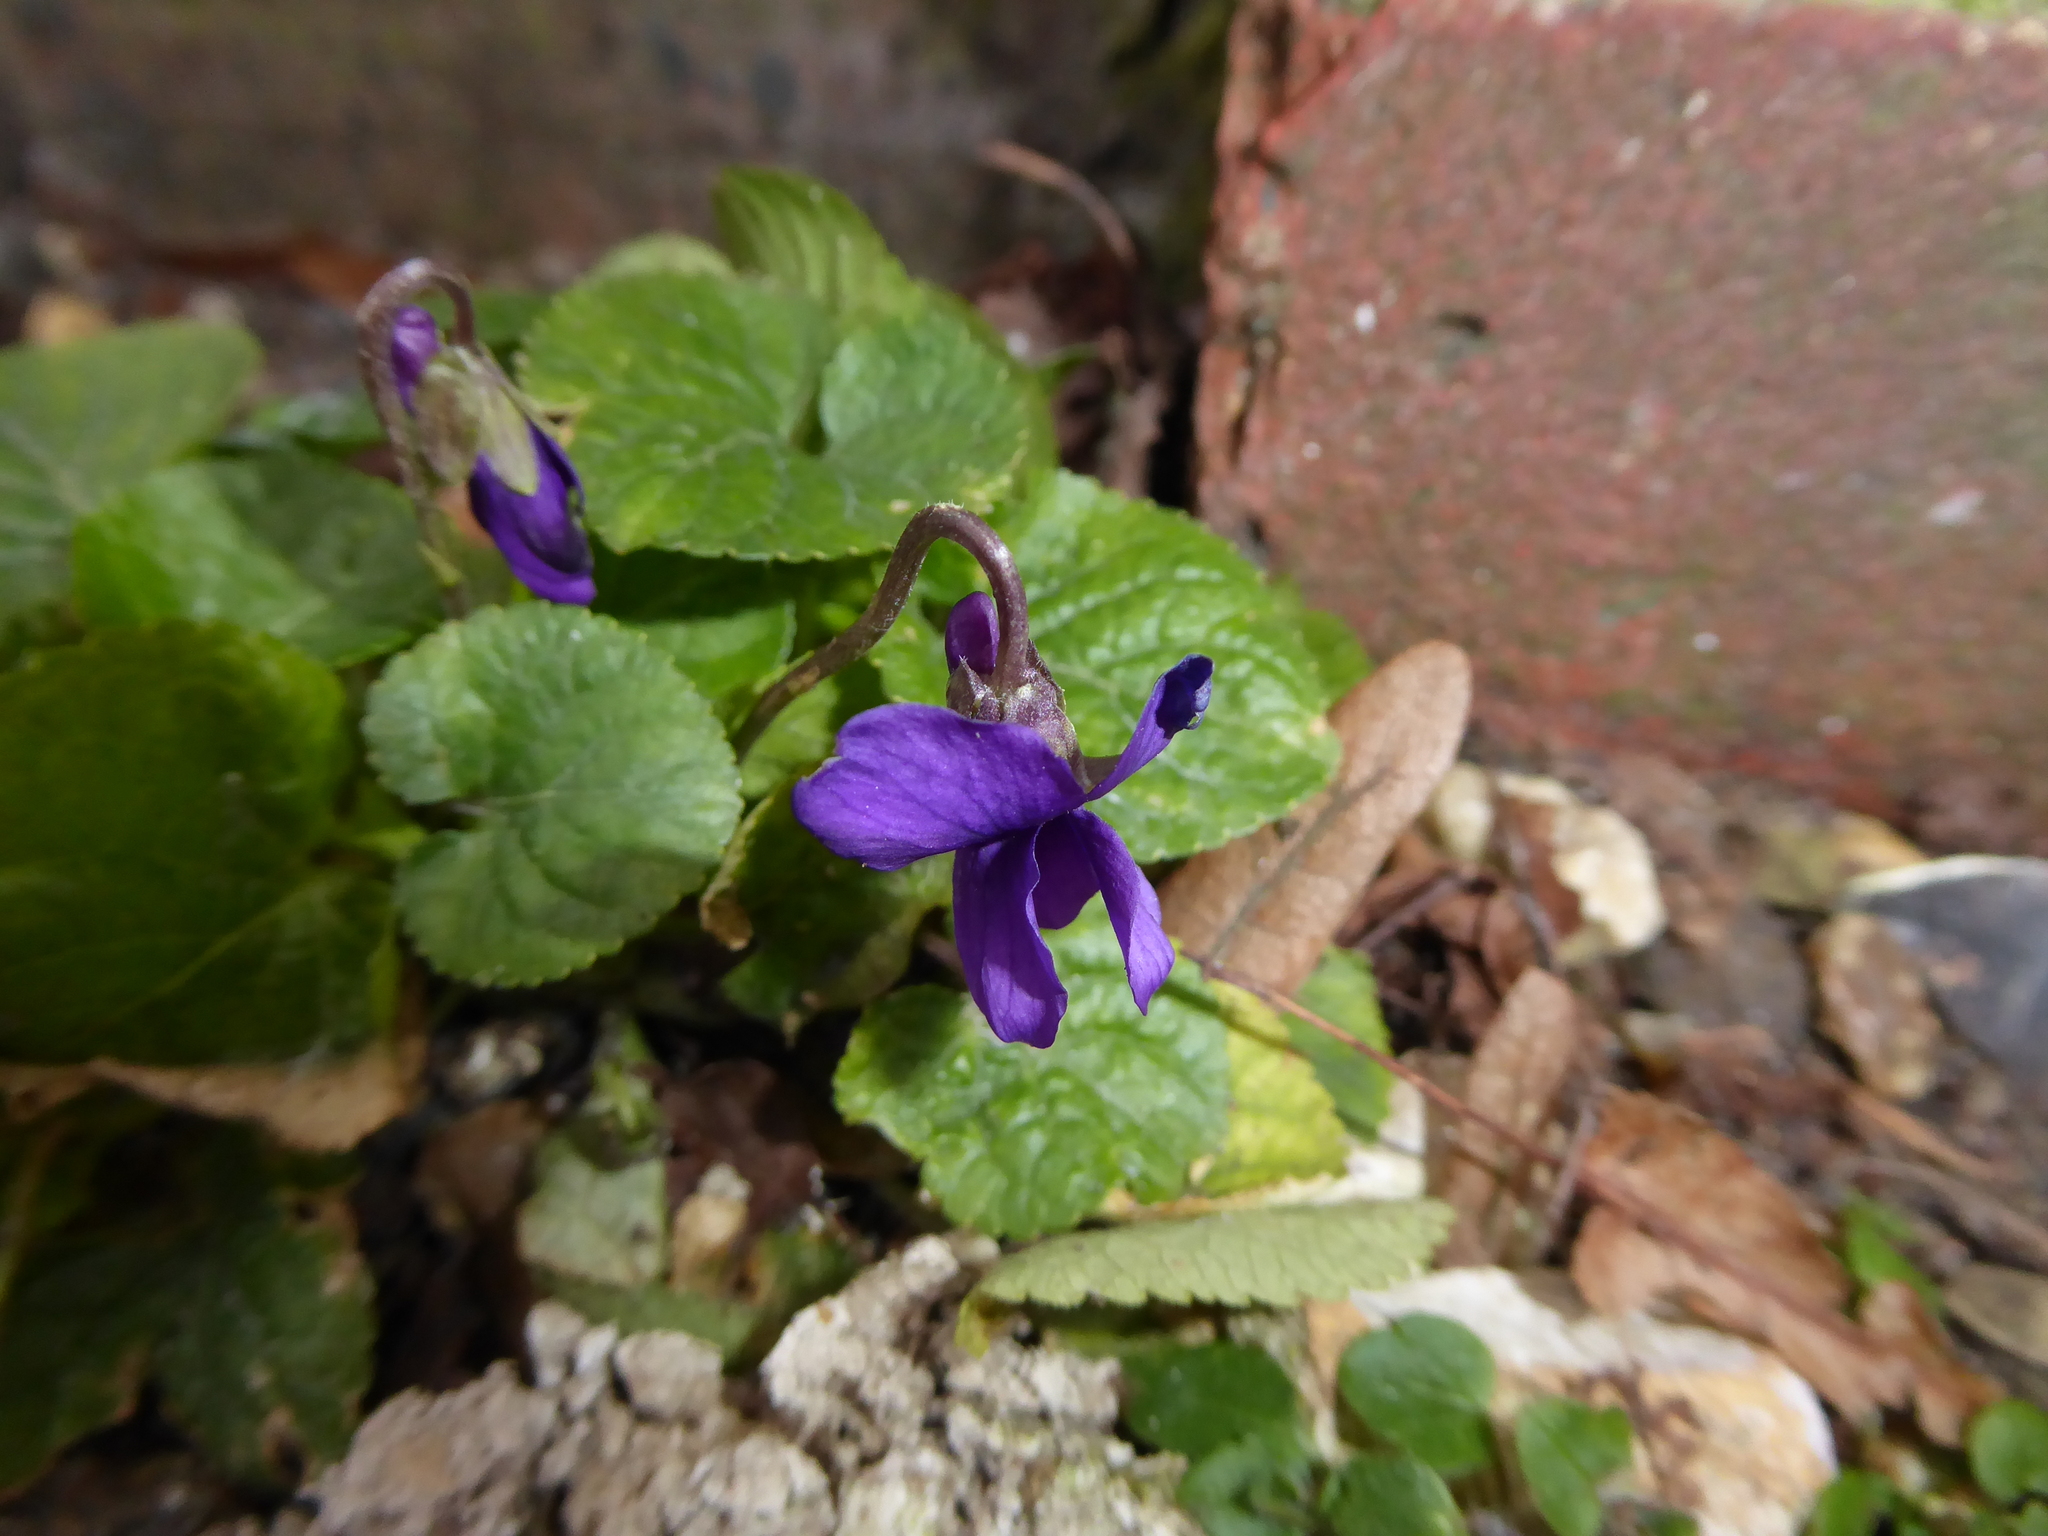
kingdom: Plantae
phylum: Tracheophyta
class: Magnoliopsida
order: Malpighiales
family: Violaceae
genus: Viola
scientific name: Viola odorata
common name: Sweet violet
